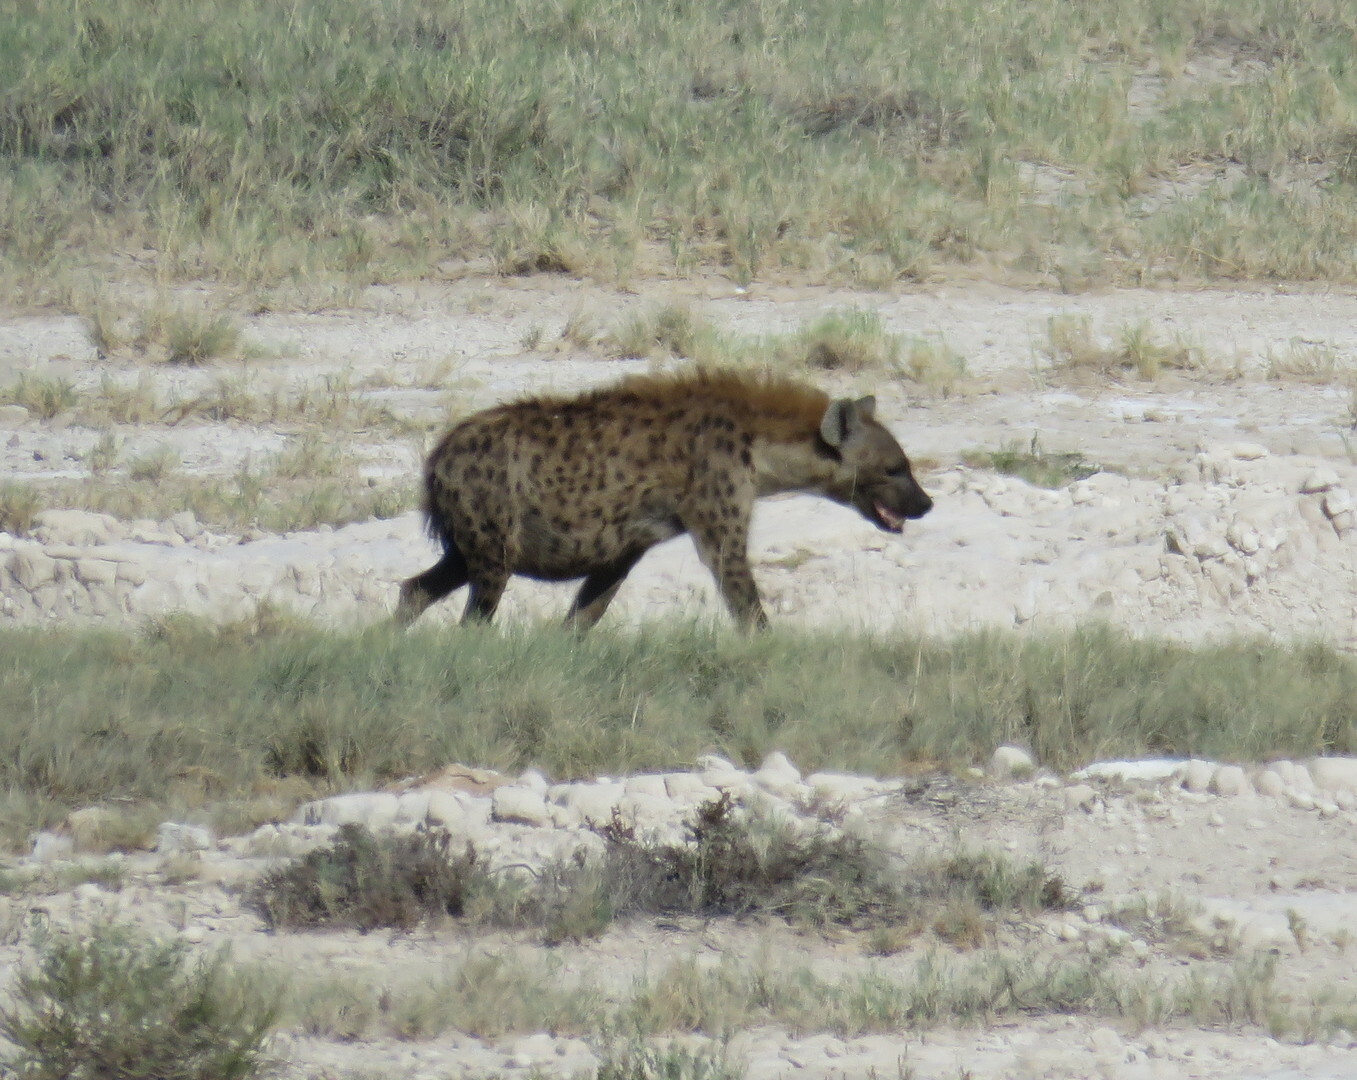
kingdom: Animalia
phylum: Chordata
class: Mammalia
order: Carnivora
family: Hyaenidae
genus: Crocuta
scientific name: Crocuta crocuta
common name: Spotted hyaena
